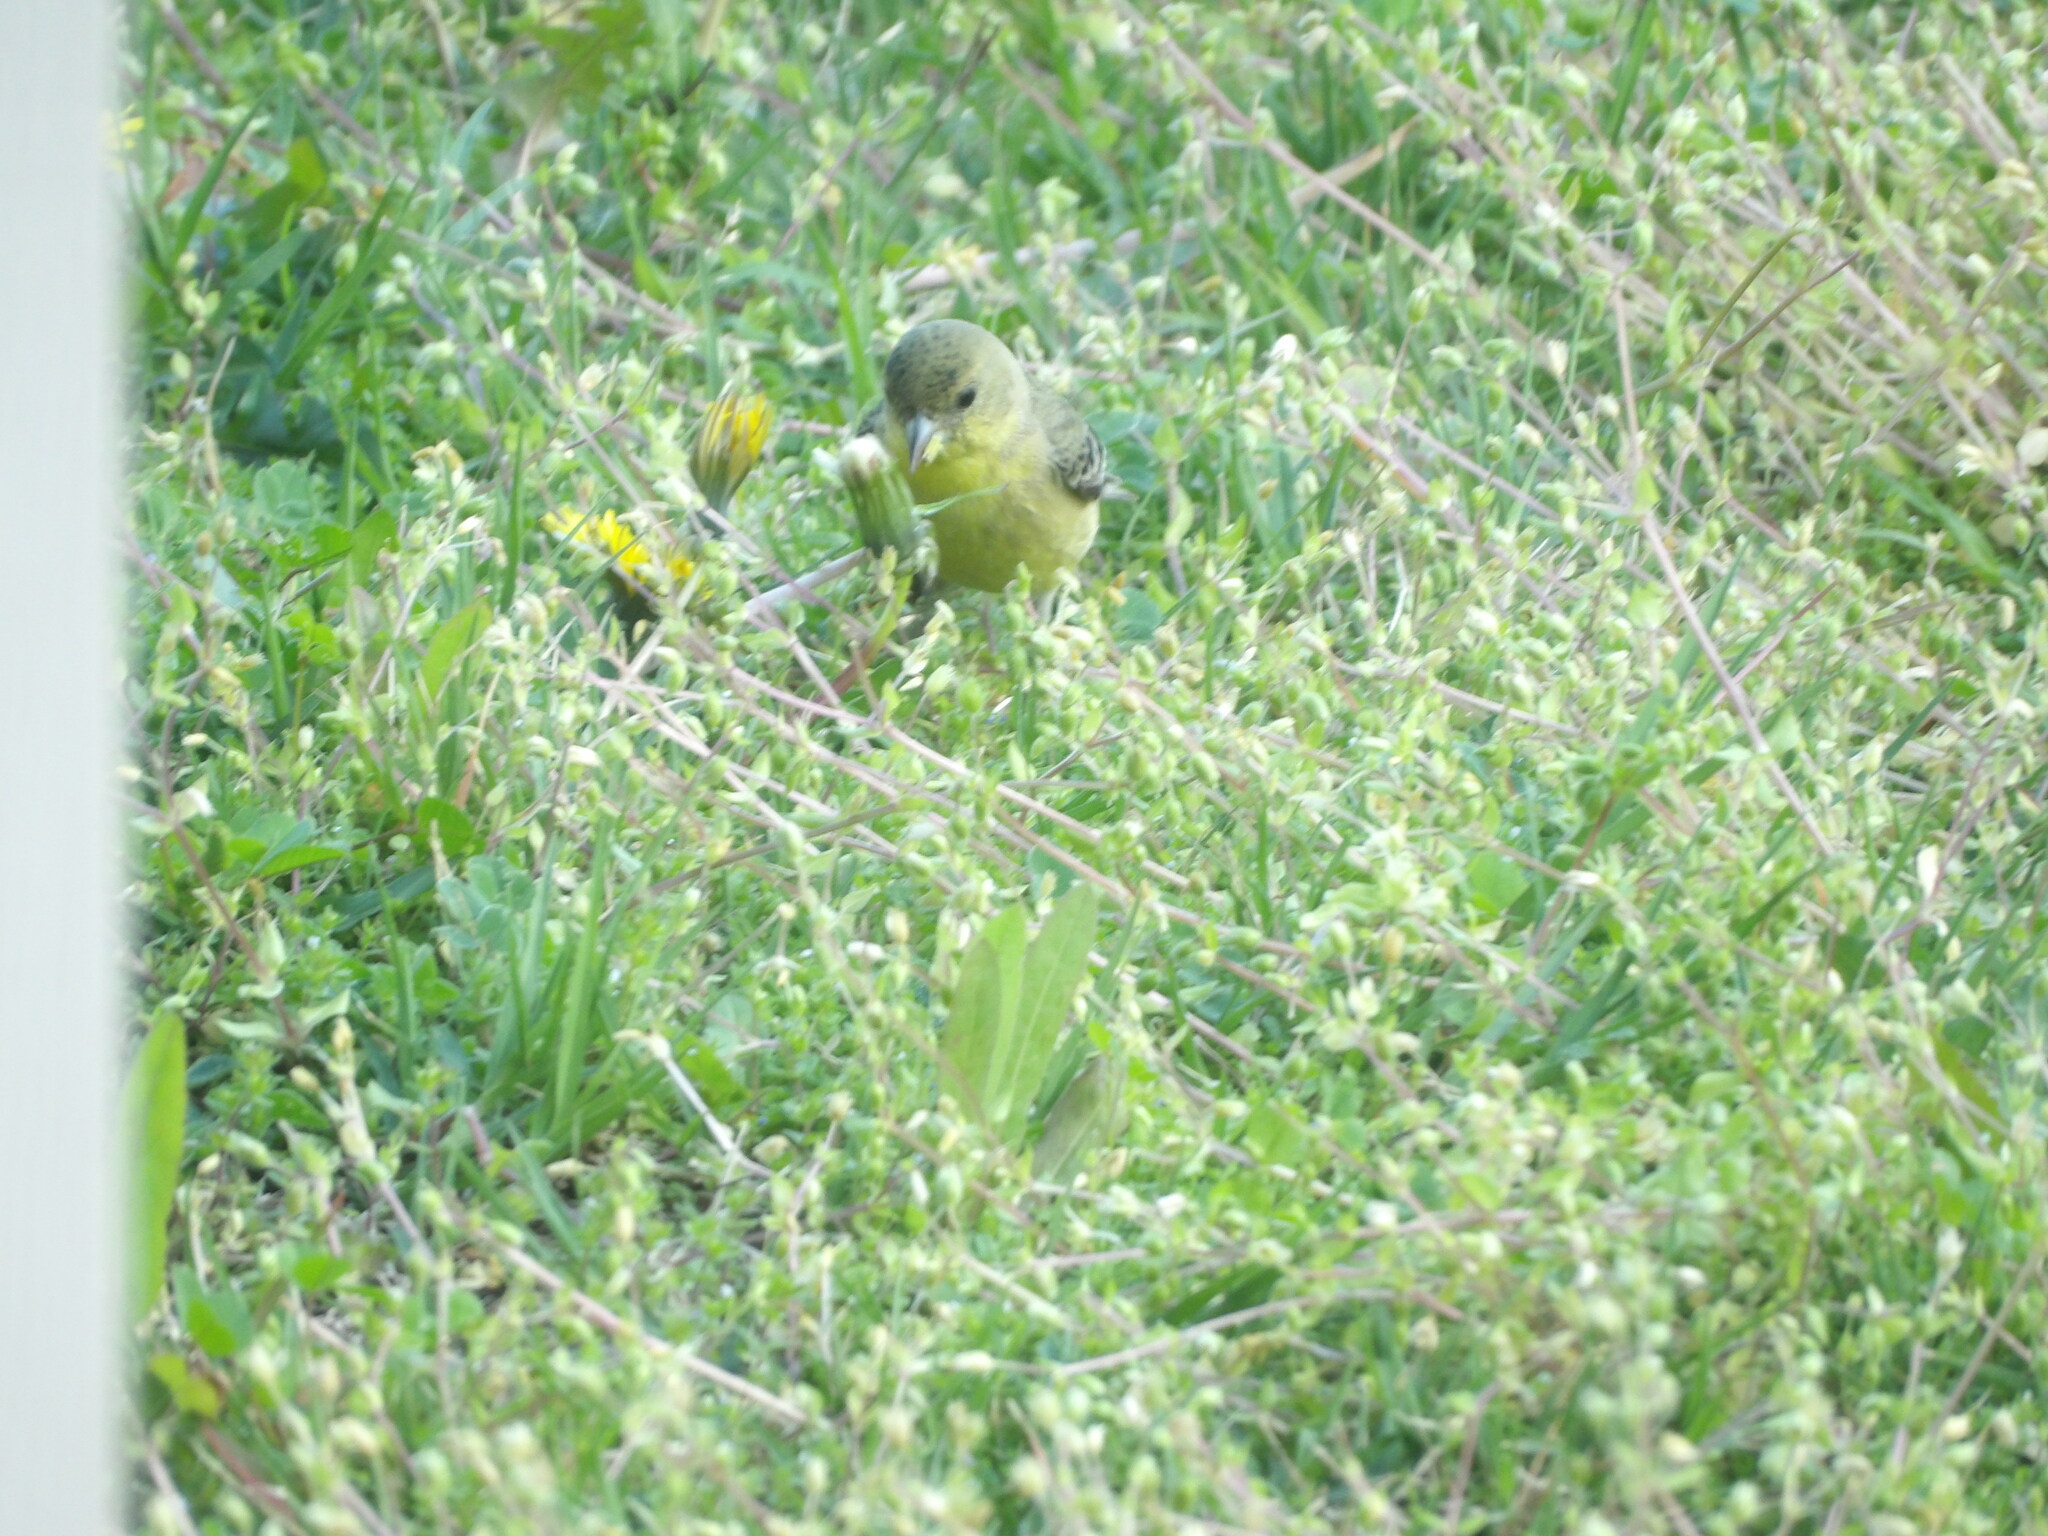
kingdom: Animalia
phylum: Chordata
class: Aves
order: Passeriformes
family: Fringillidae
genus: Spinus
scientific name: Spinus psaltria
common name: Lesser goldfinch
